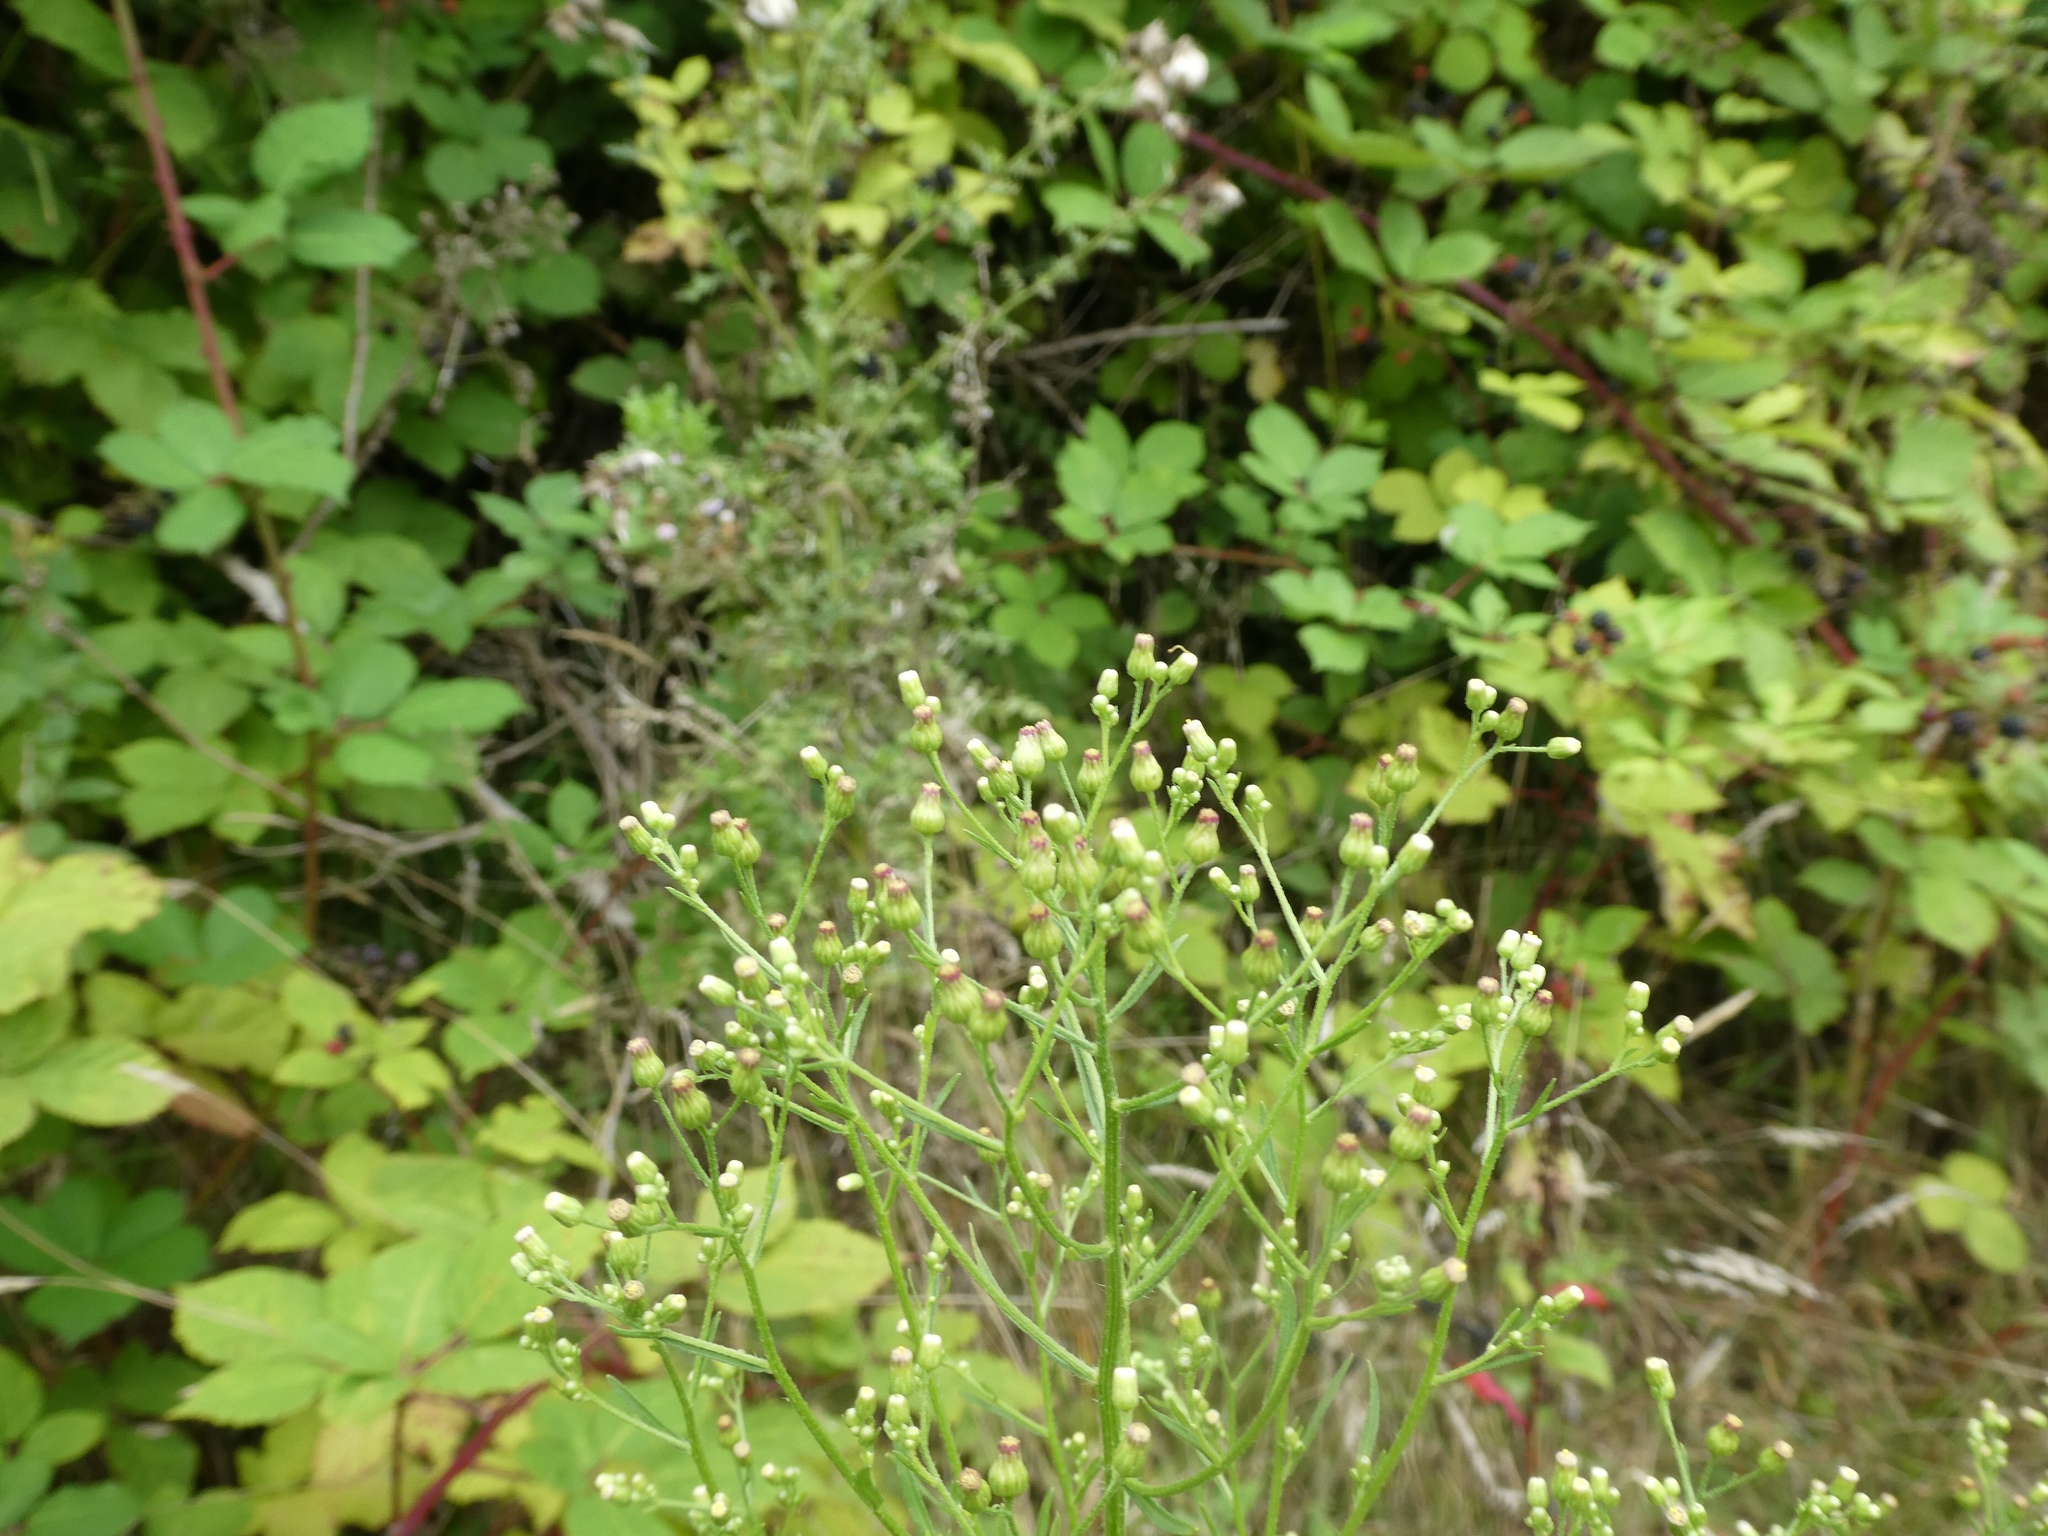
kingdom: Plantae
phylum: Tracheophyta
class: Magnoliopsida
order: Asterales
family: Asteraceae
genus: Erigeron
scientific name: Erigeron canadensis
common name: Canadian fleabane
